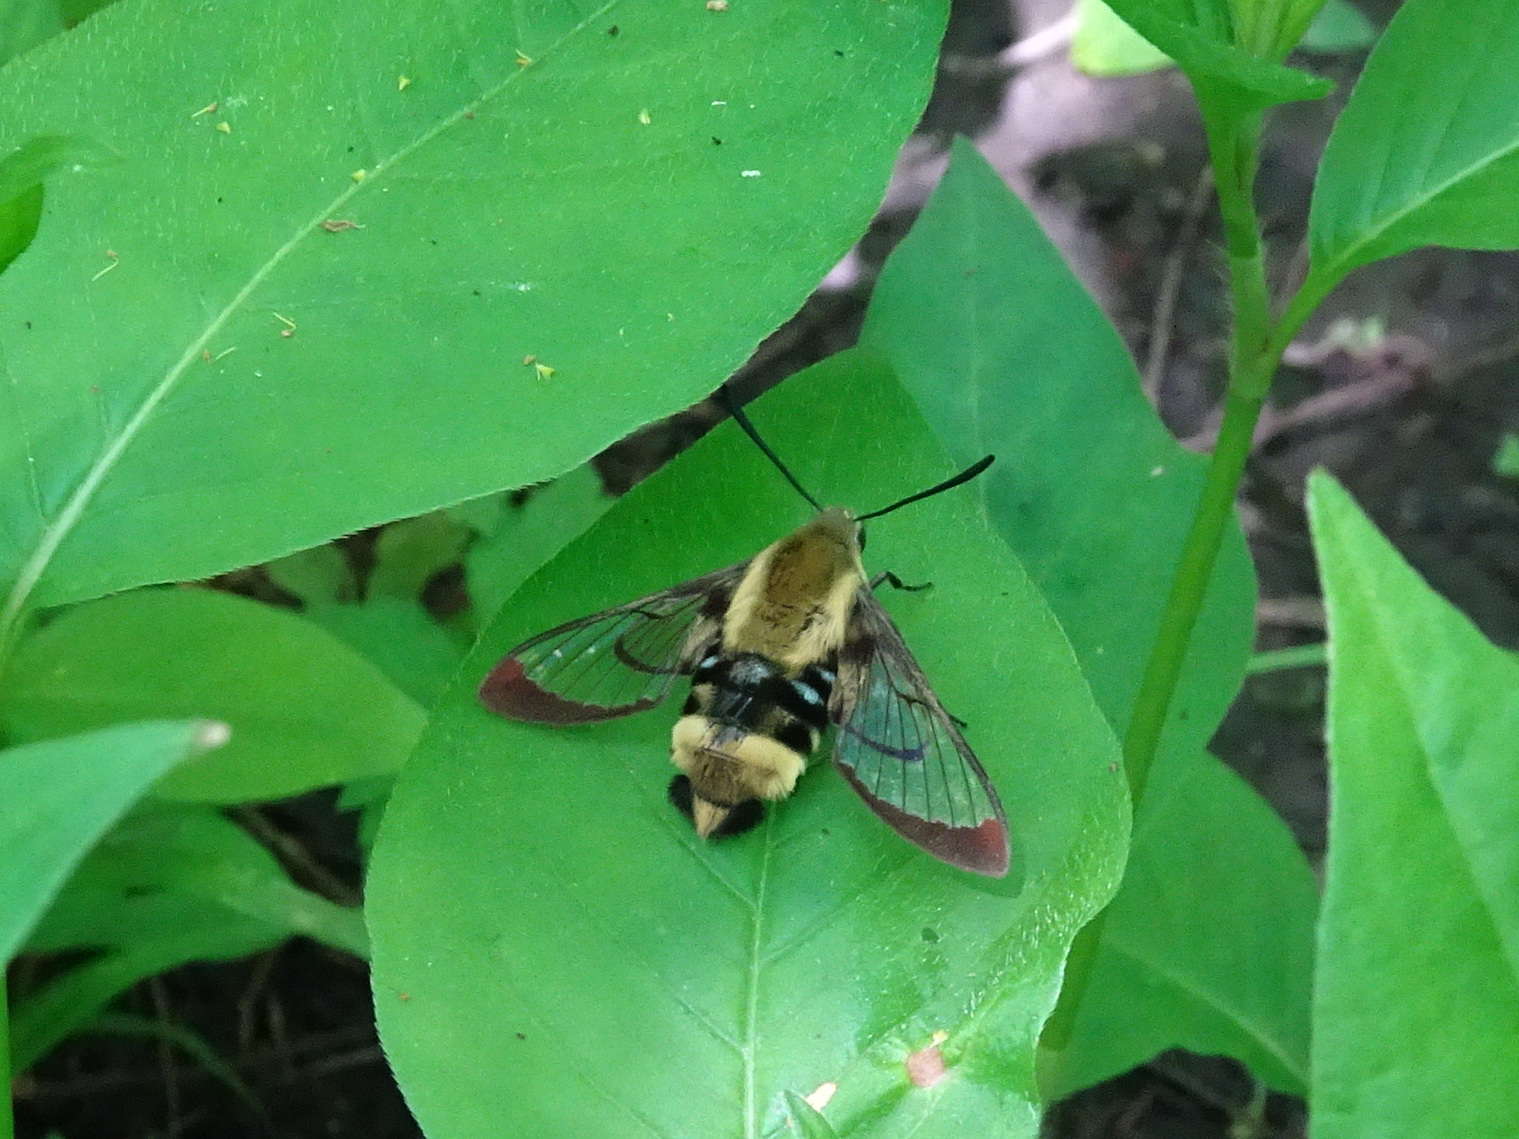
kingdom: Animalia
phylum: Arthropoda
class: Insecta
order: Lepidoptera
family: Sphingidae
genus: Hemaris
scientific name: Hemaris diffinis
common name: Bumblebee moth
